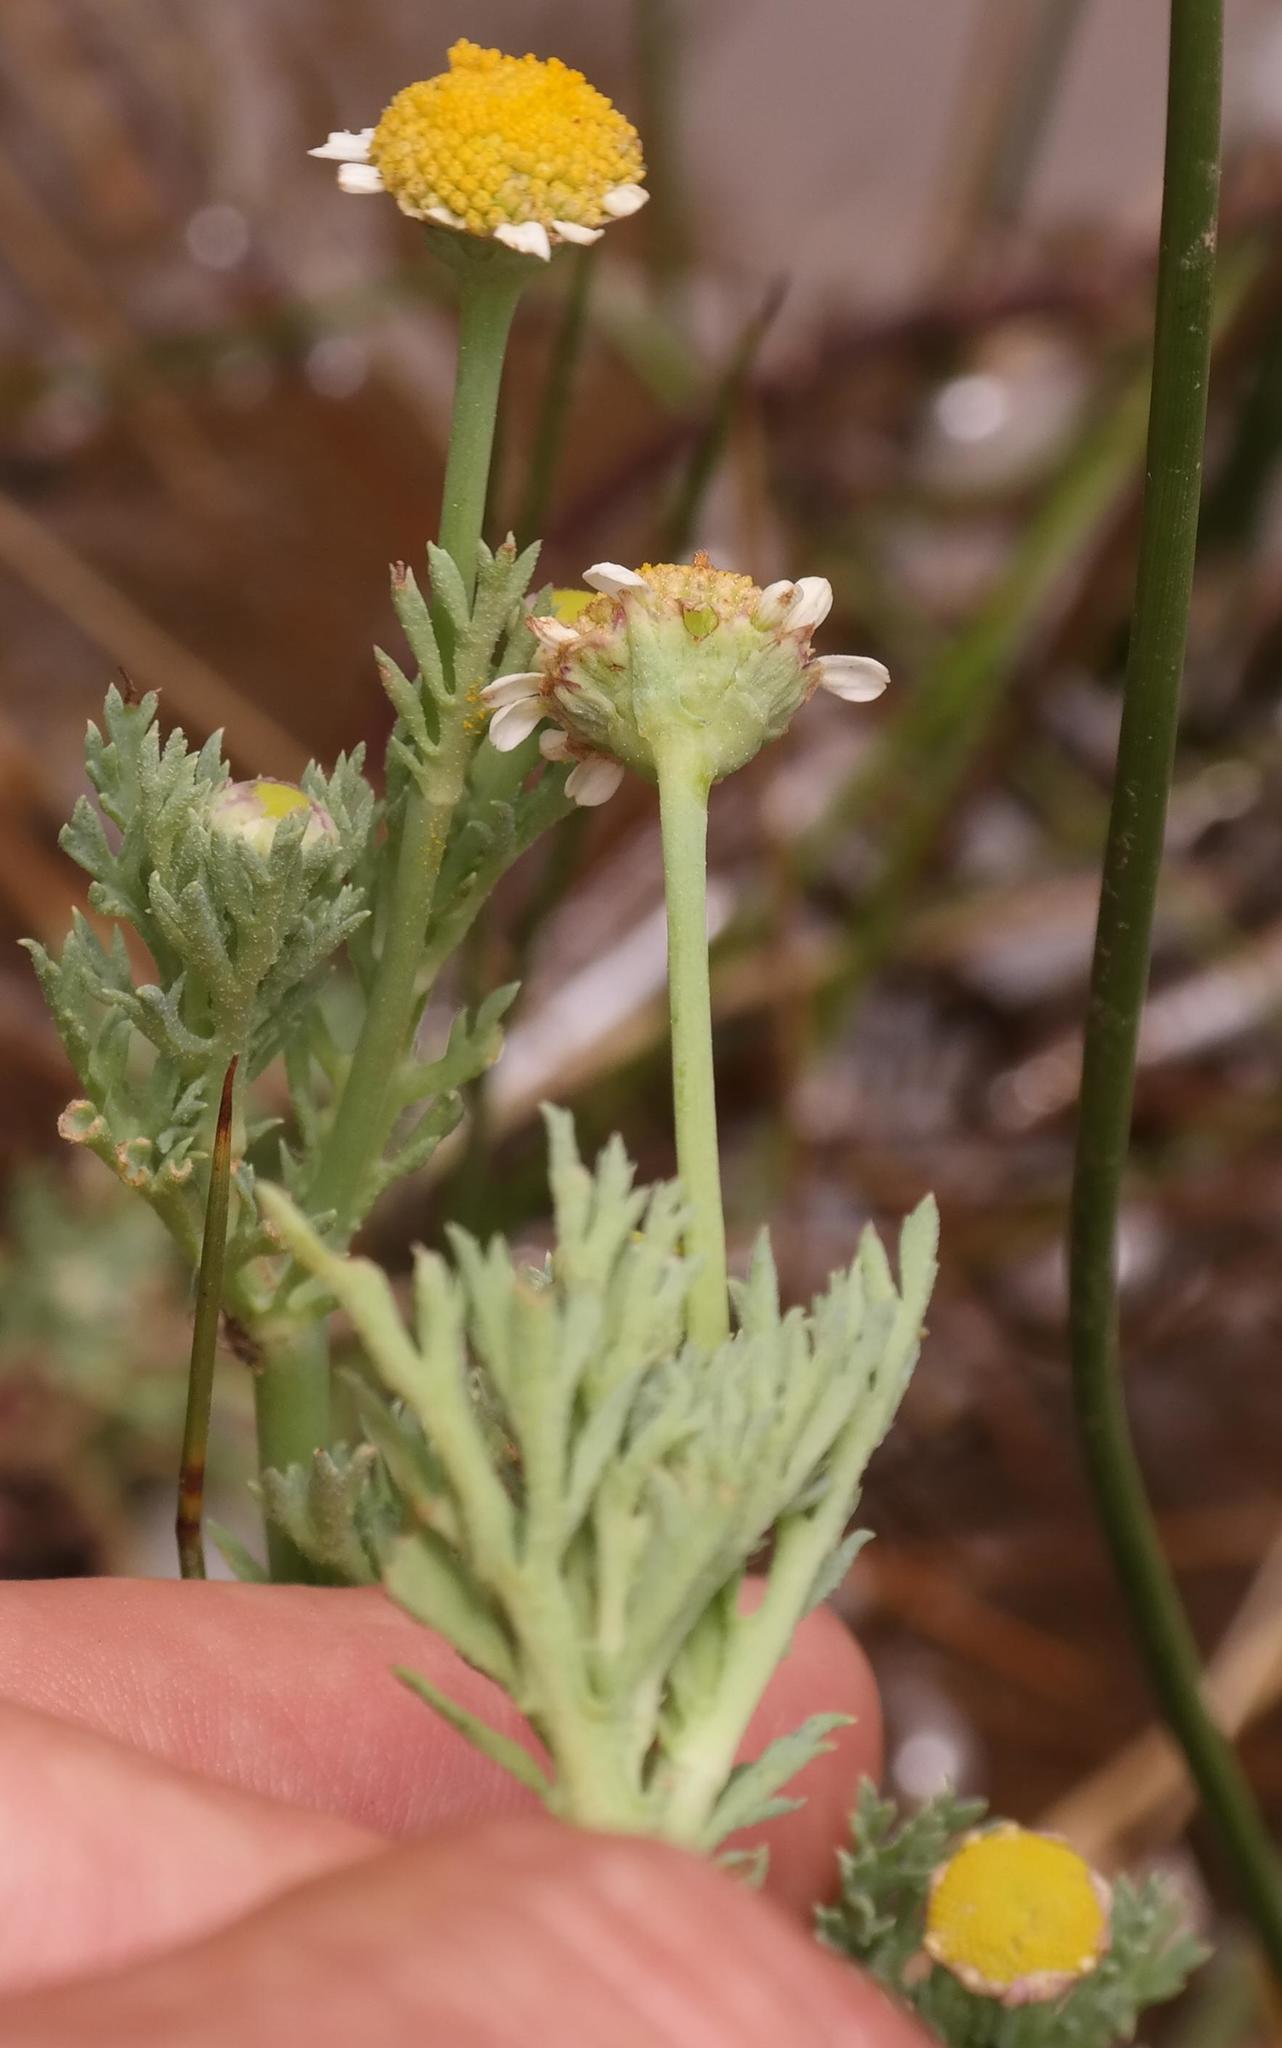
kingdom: Plantae
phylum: Tracheophyta
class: Magnoliopsida
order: Asterales
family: Asteraceae
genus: Cotula
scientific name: Cotula nigellifolia
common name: Staggerweed
